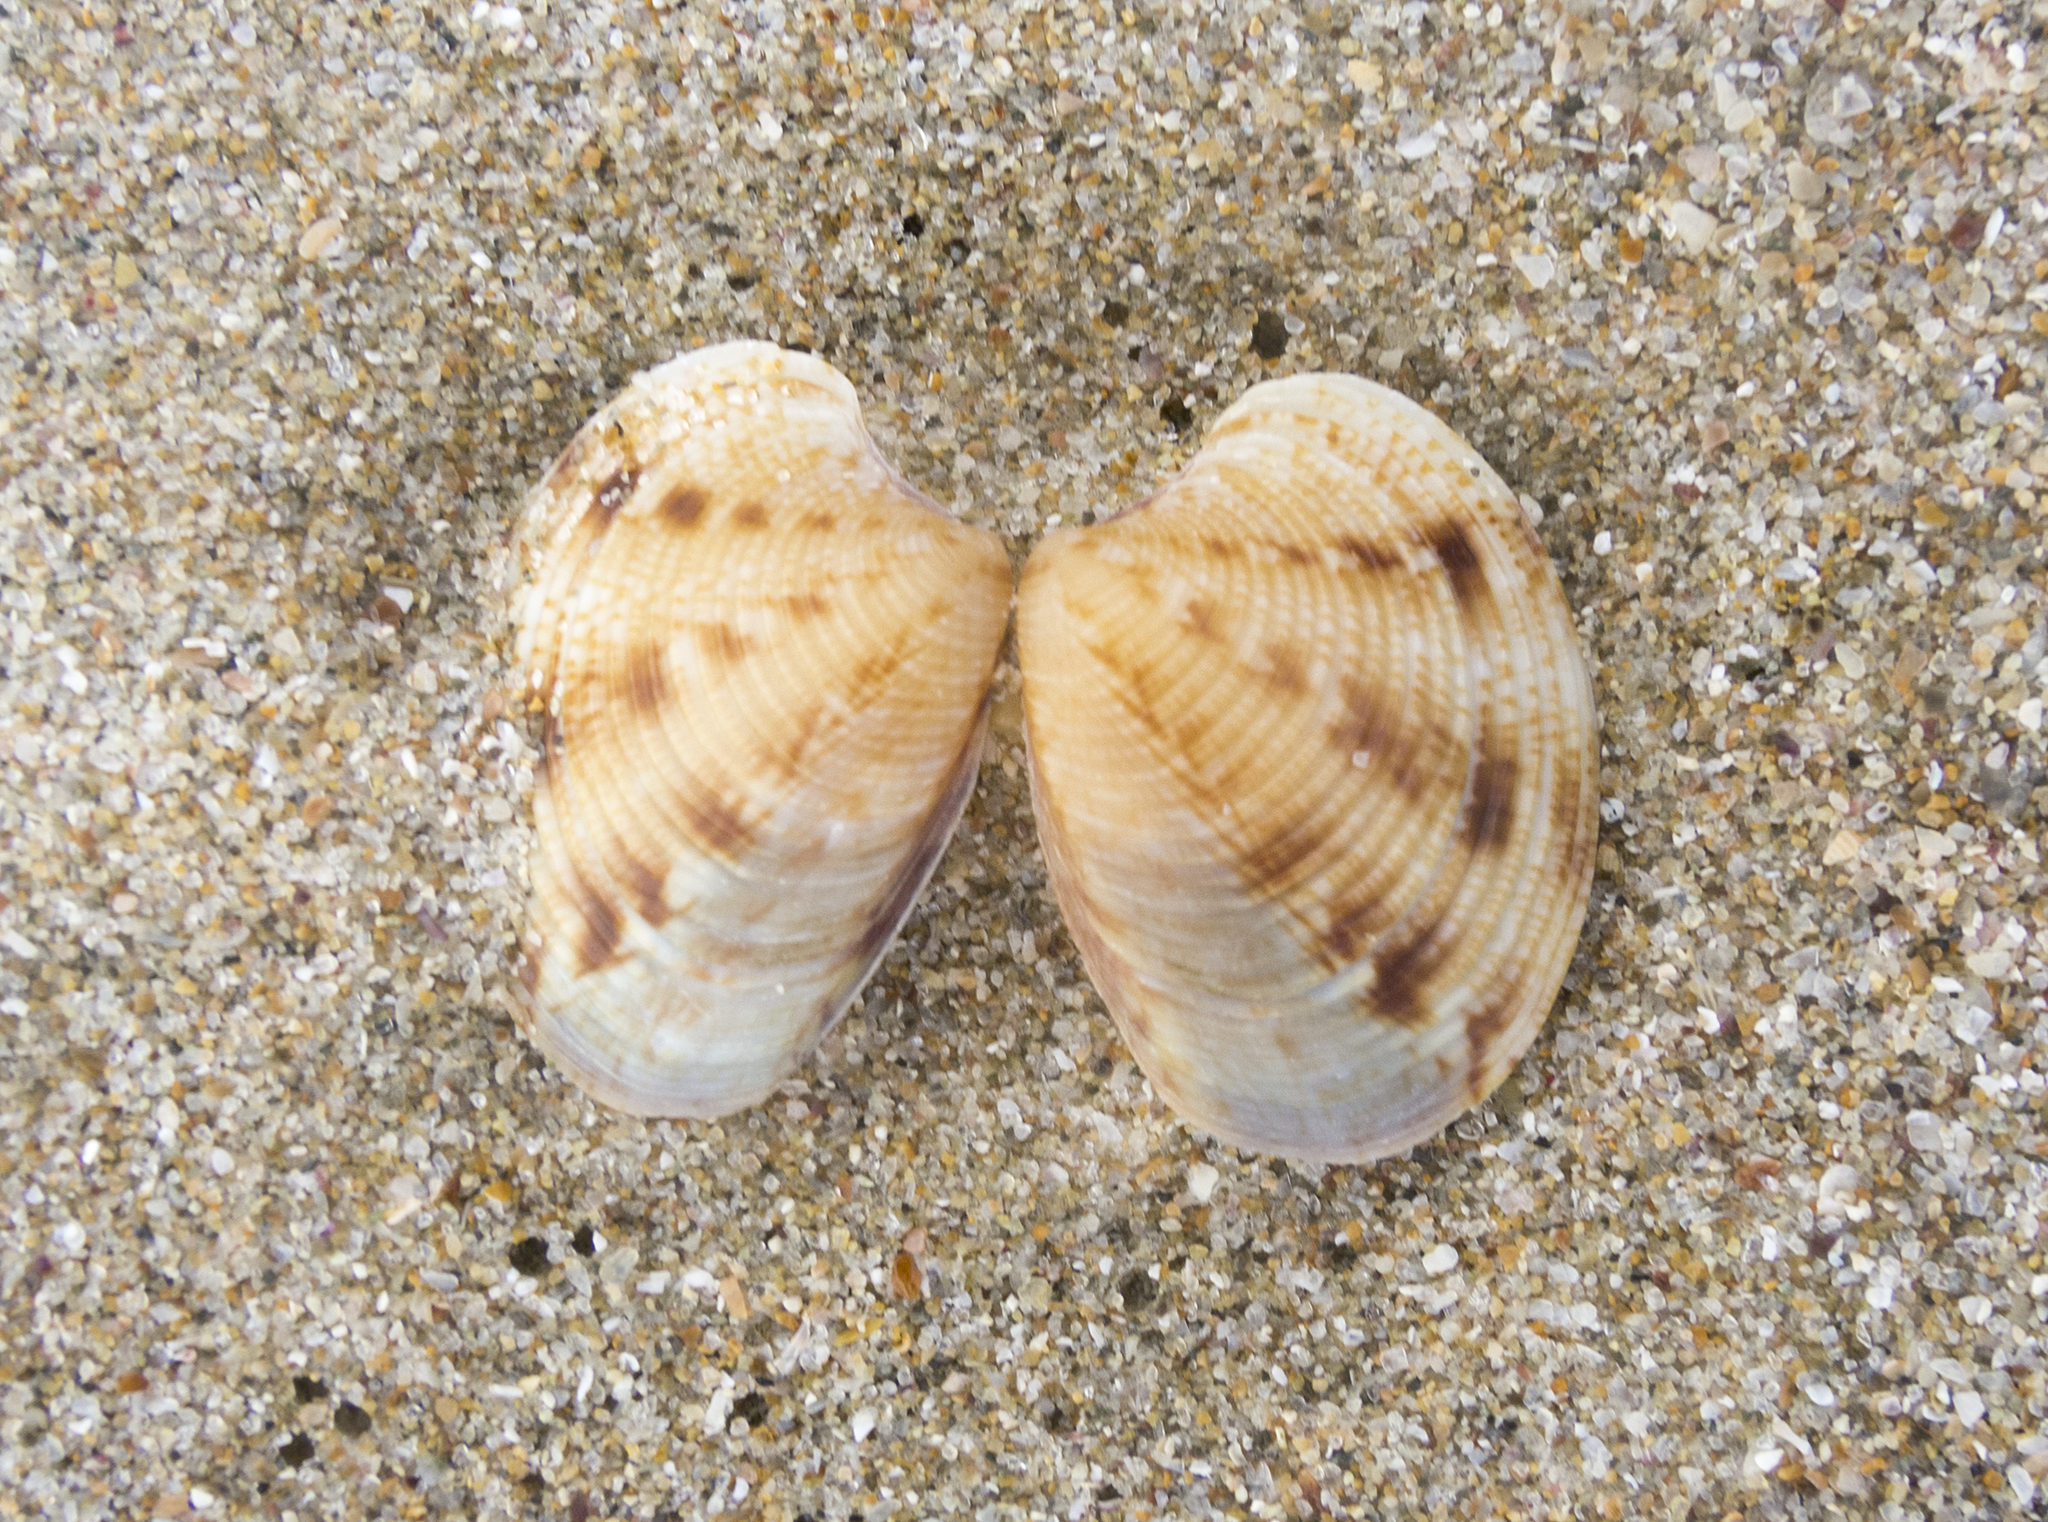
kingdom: Animalia
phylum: Mollusca
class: Bivalvia
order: Venerida
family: Veneridae
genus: Chamelea
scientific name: Chamelea gallina
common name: Chicken venus
